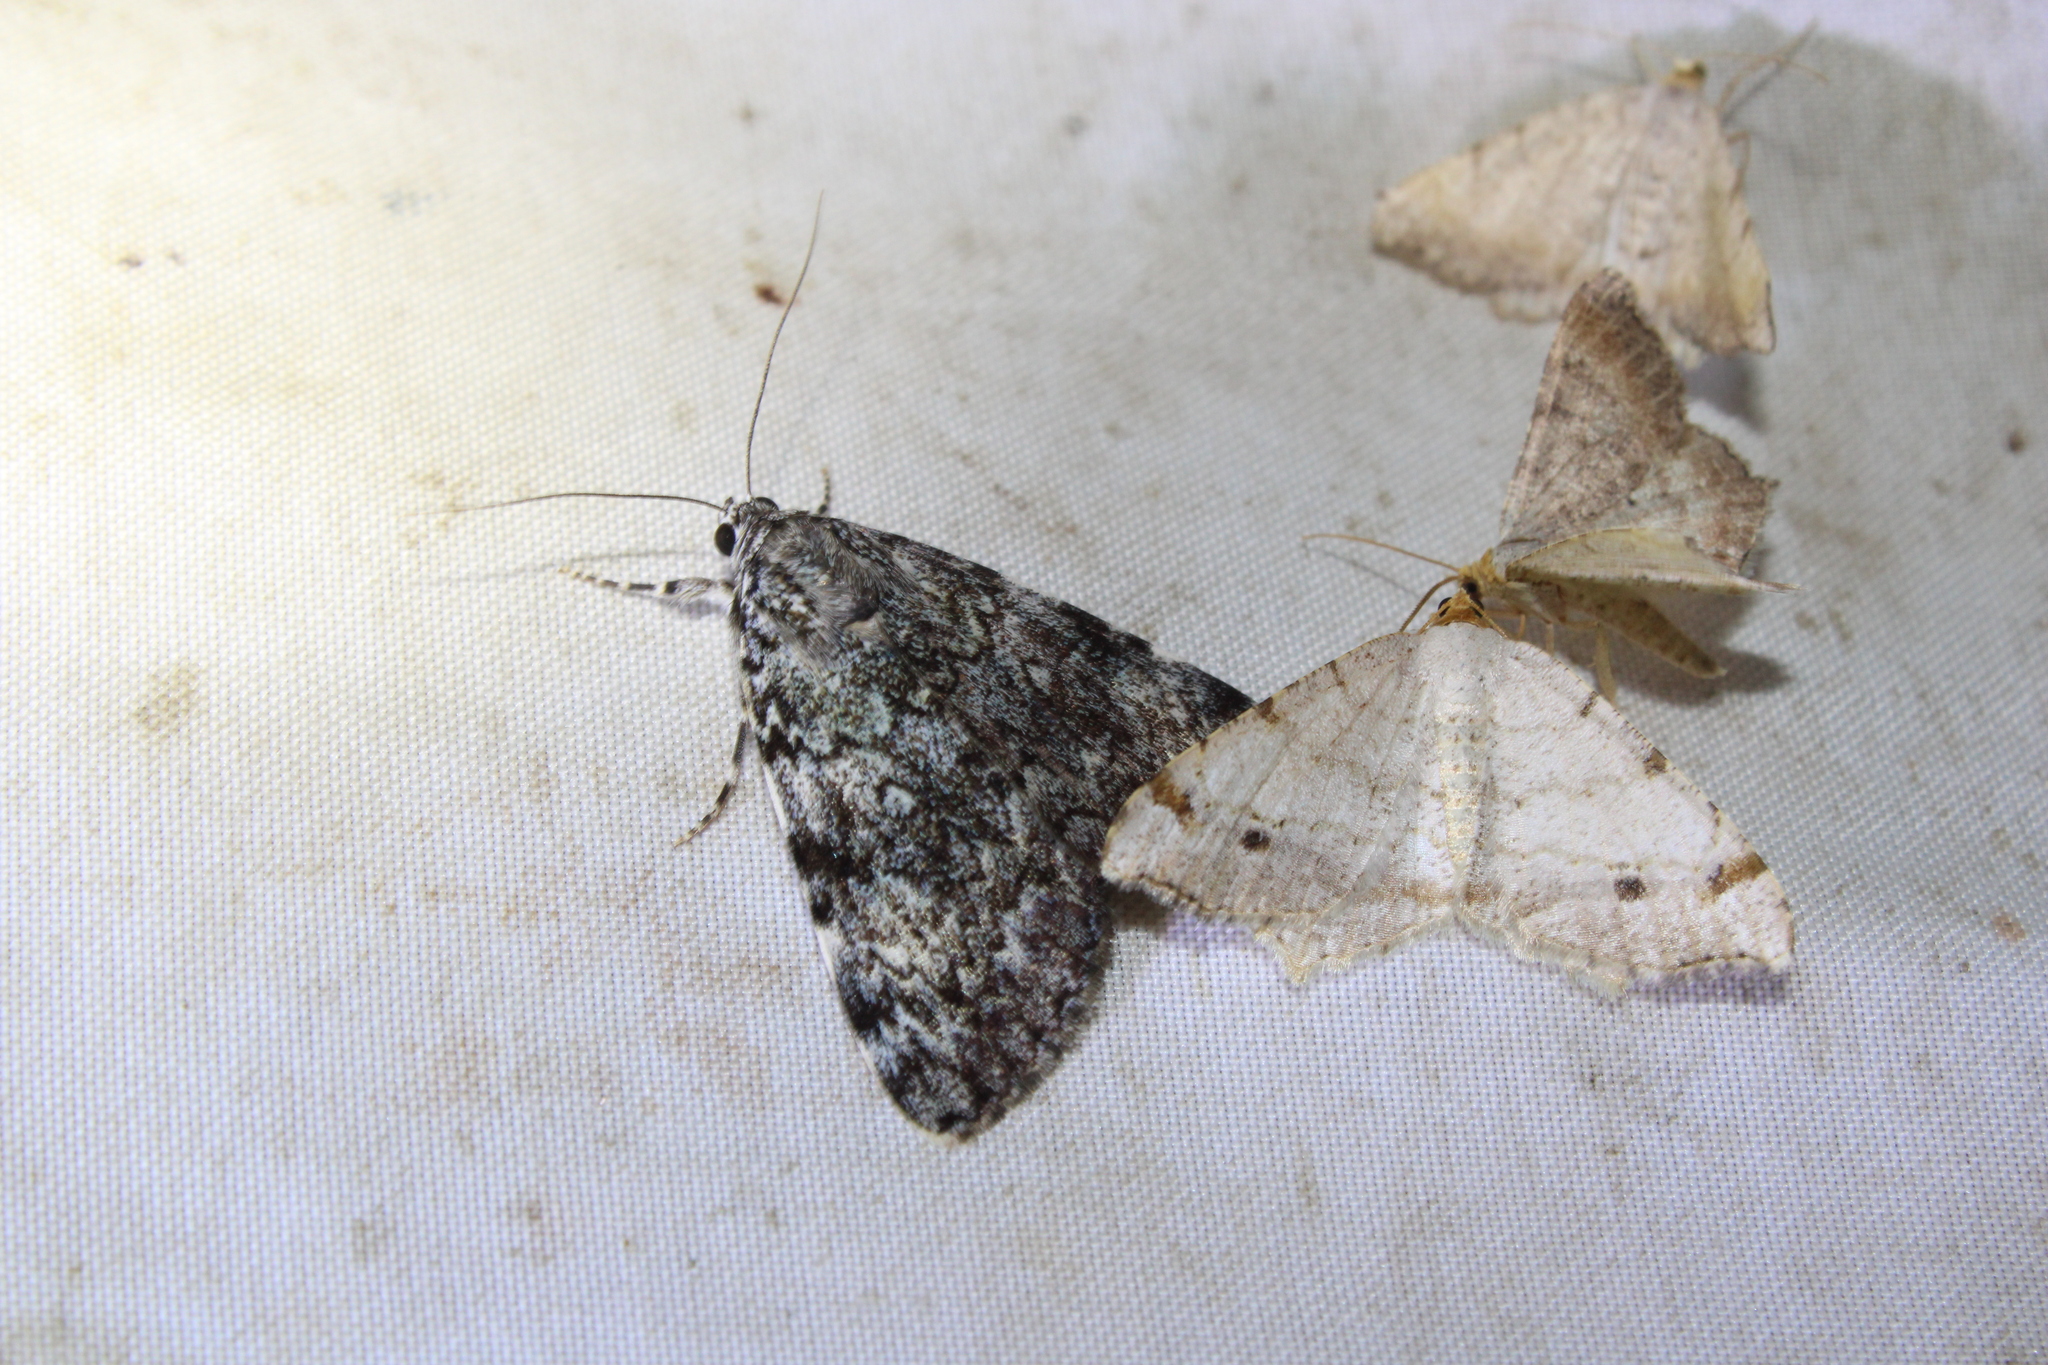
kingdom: Animalia
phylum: Arthropoda
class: Insecta
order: Lepidoptera
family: Erebidae
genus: Catocala
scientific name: Catocala lineella
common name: Little lined underwing
